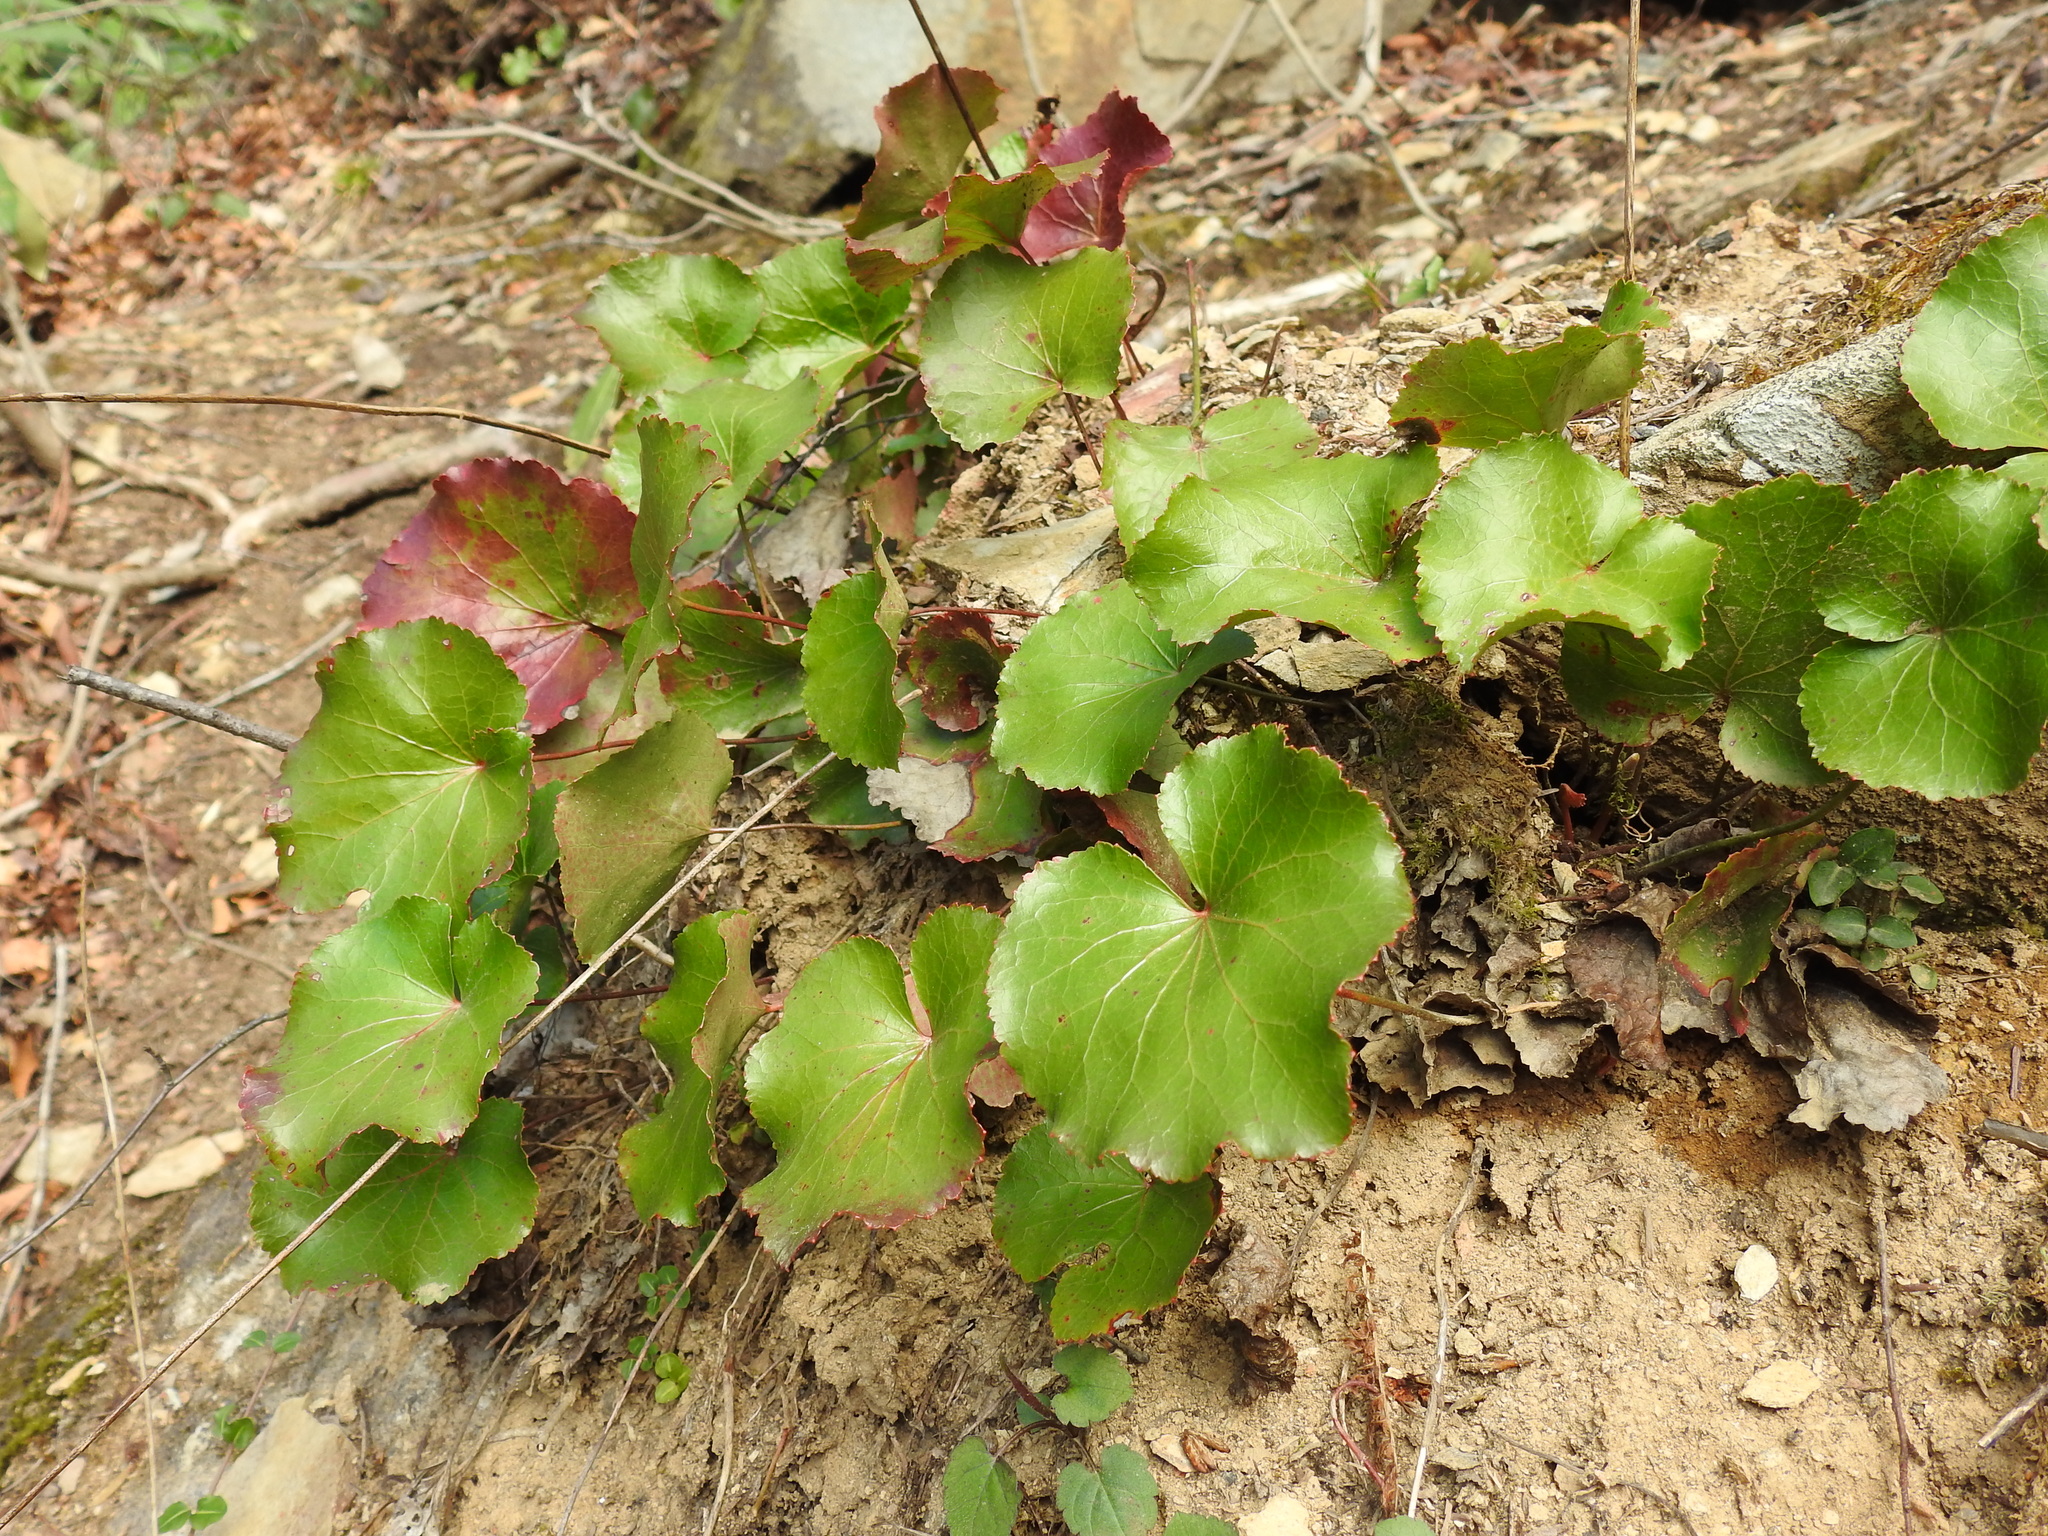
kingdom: Plantae
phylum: Tracheophyta
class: Magnoliopsida
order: Ericales
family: Diapensiaceae
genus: Galax
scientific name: Galax urceolata
